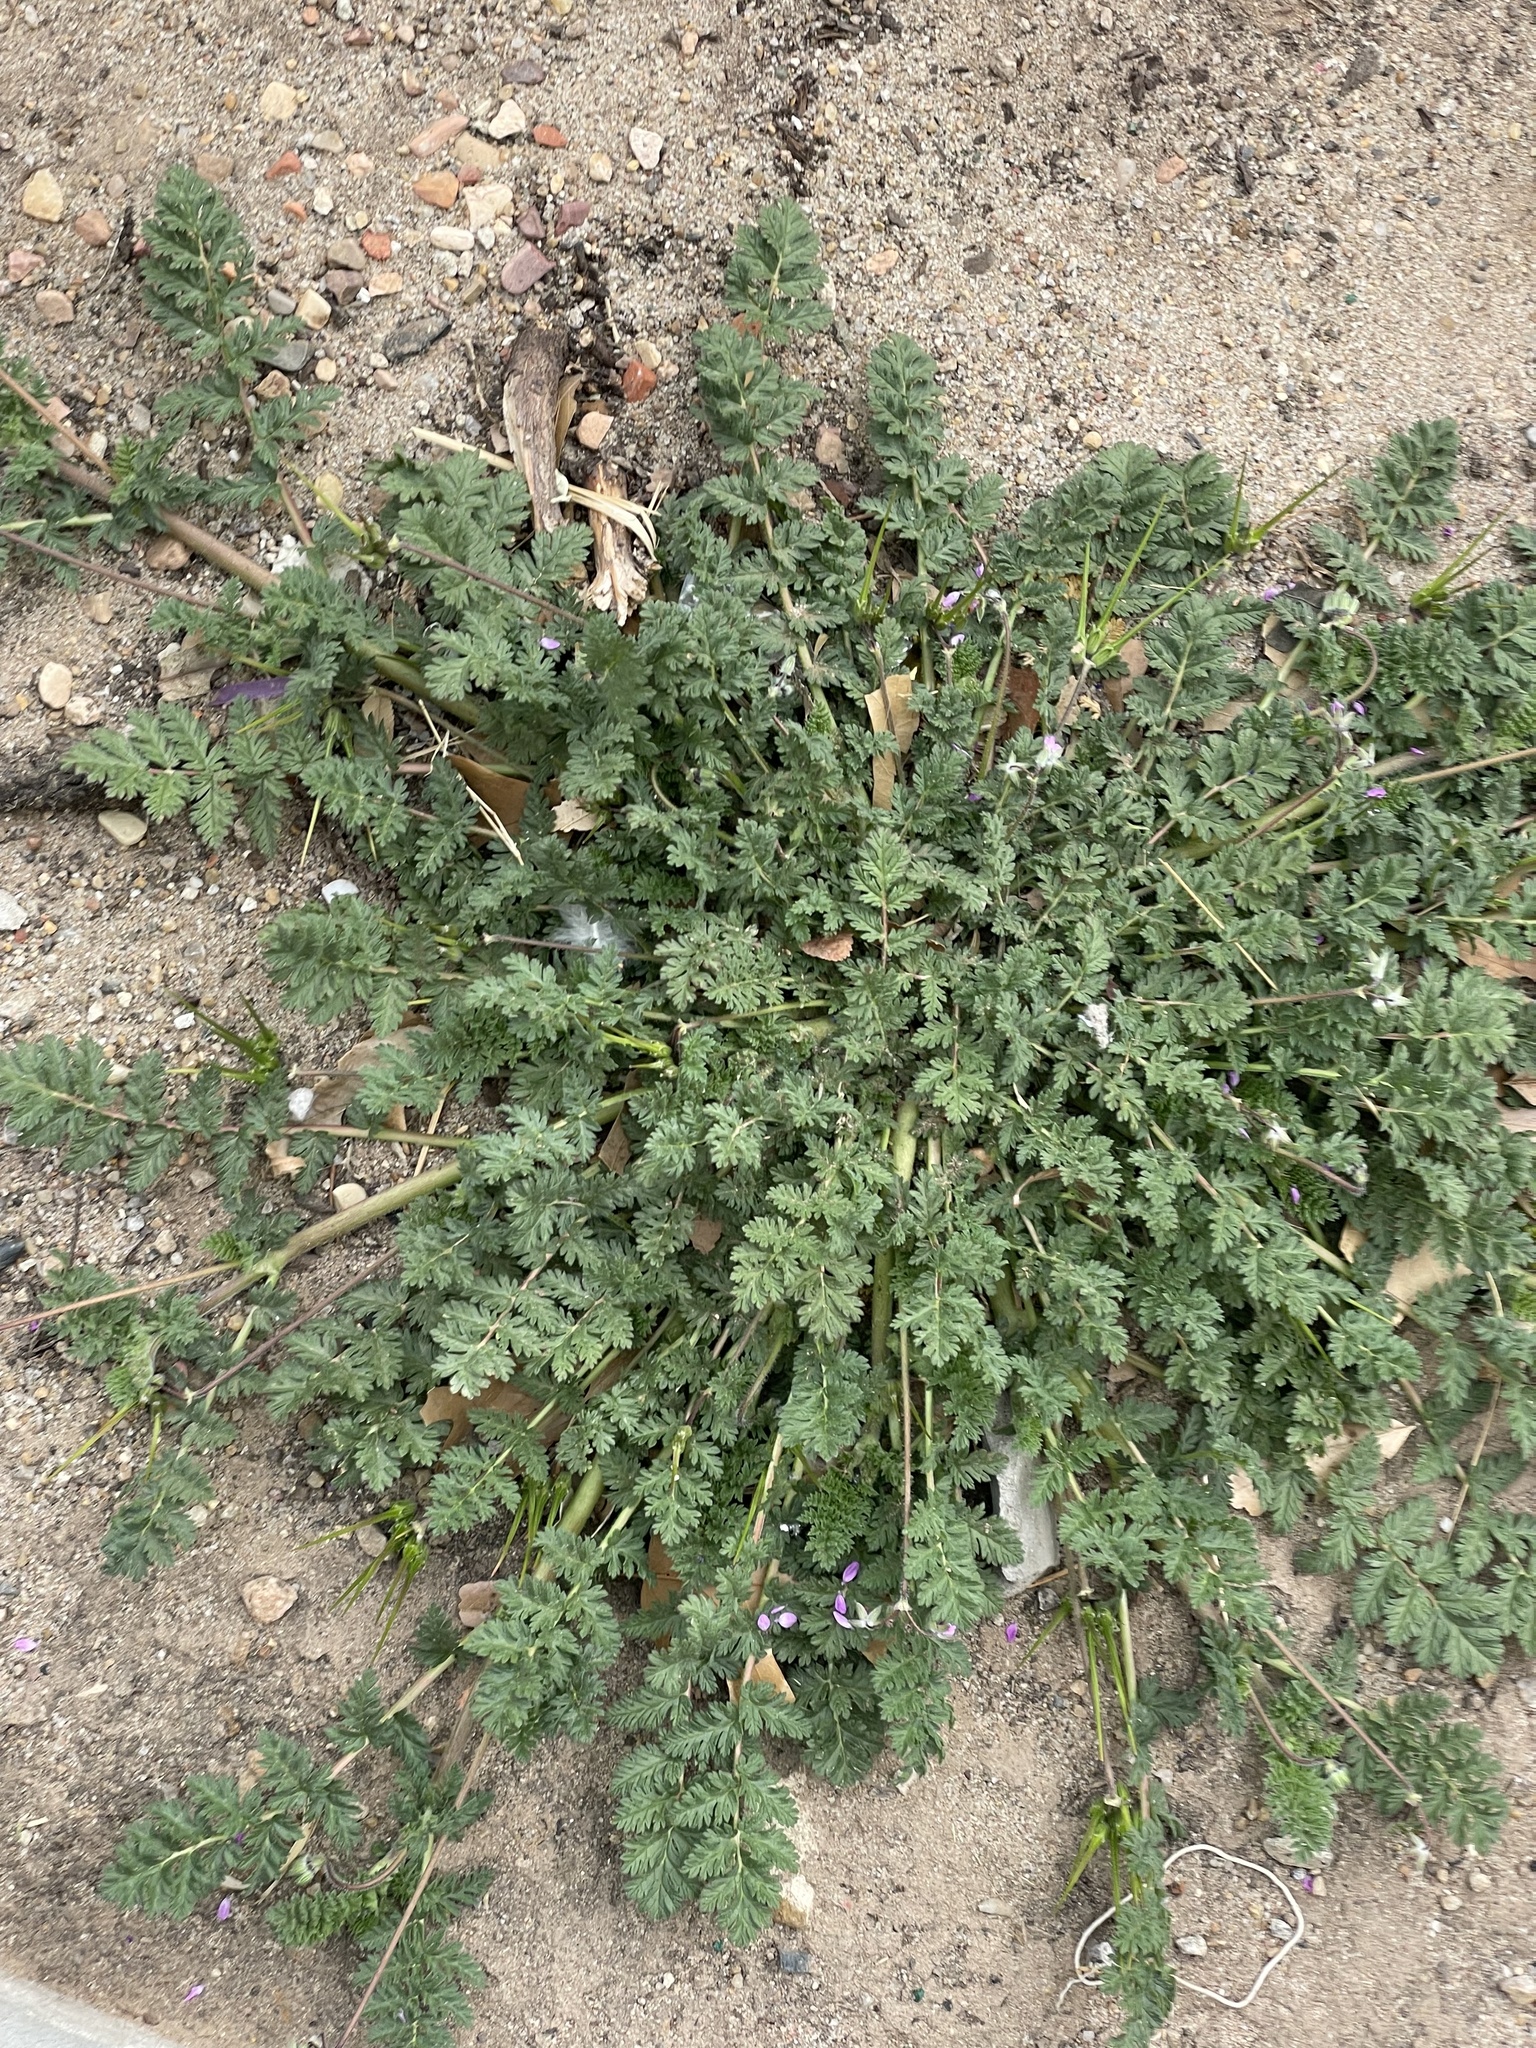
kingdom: Plantae
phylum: Tracheophyta
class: Magnoliopsida
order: Geraniales
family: Geraniaceae
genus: Erodium
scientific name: Erodium cicutarium
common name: Common stork's-bill
